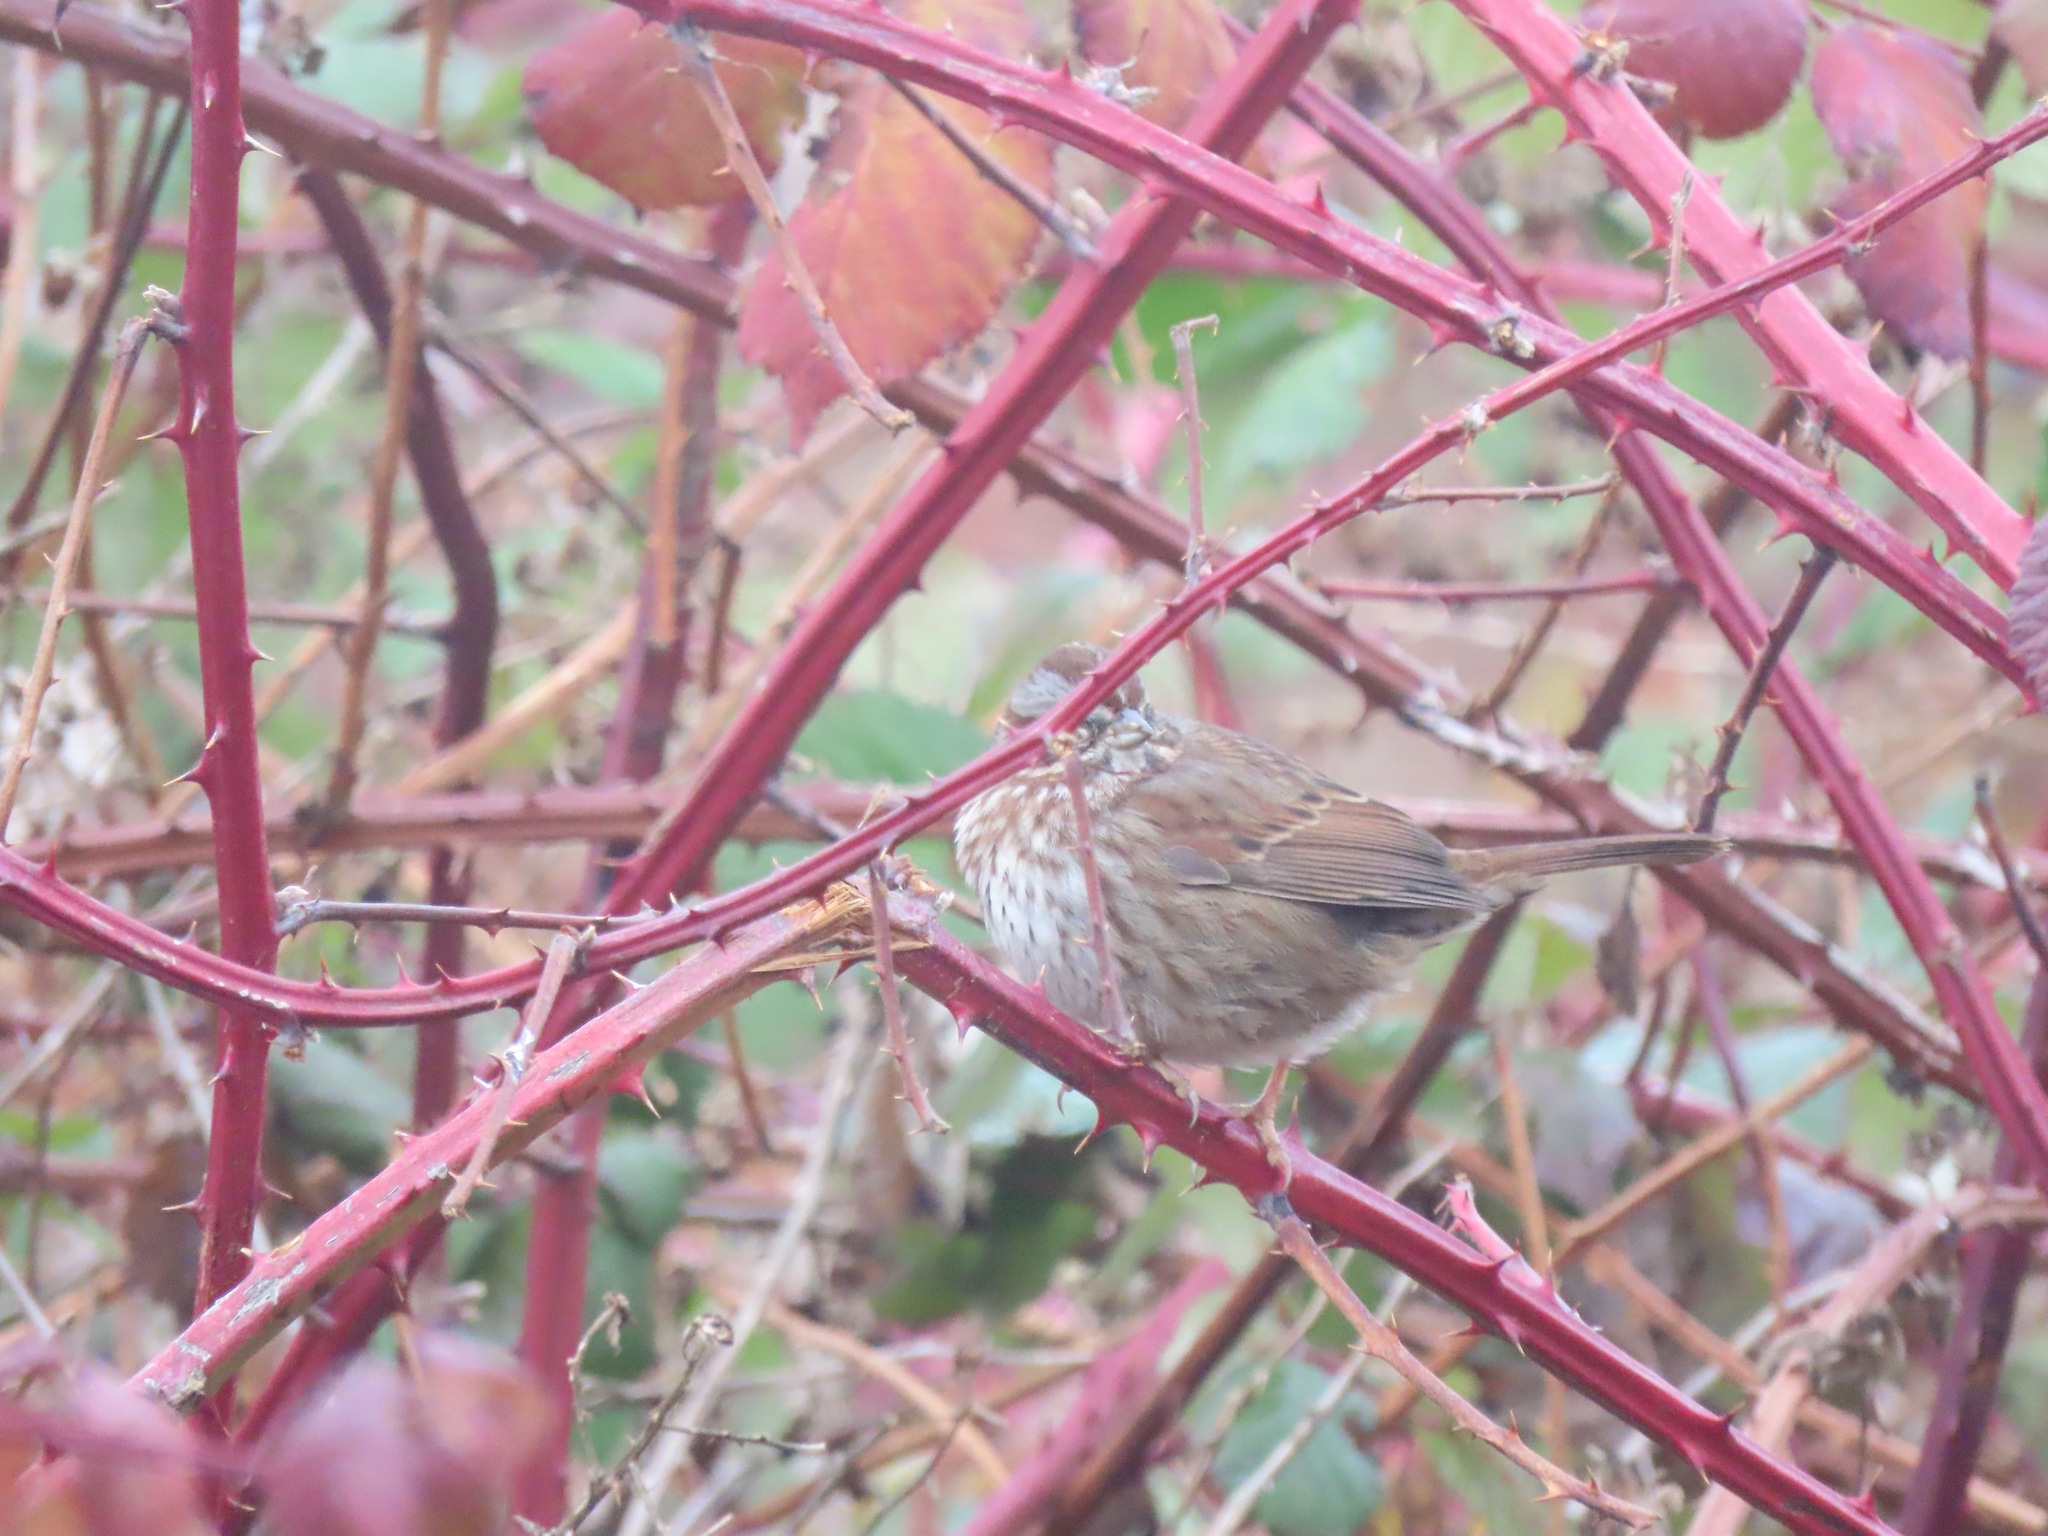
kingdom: Animalia
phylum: Chordata
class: Aves
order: Passeriformes
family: Passerellidae
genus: Melospiza
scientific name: Melospiza melodia
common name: Song sparrow
